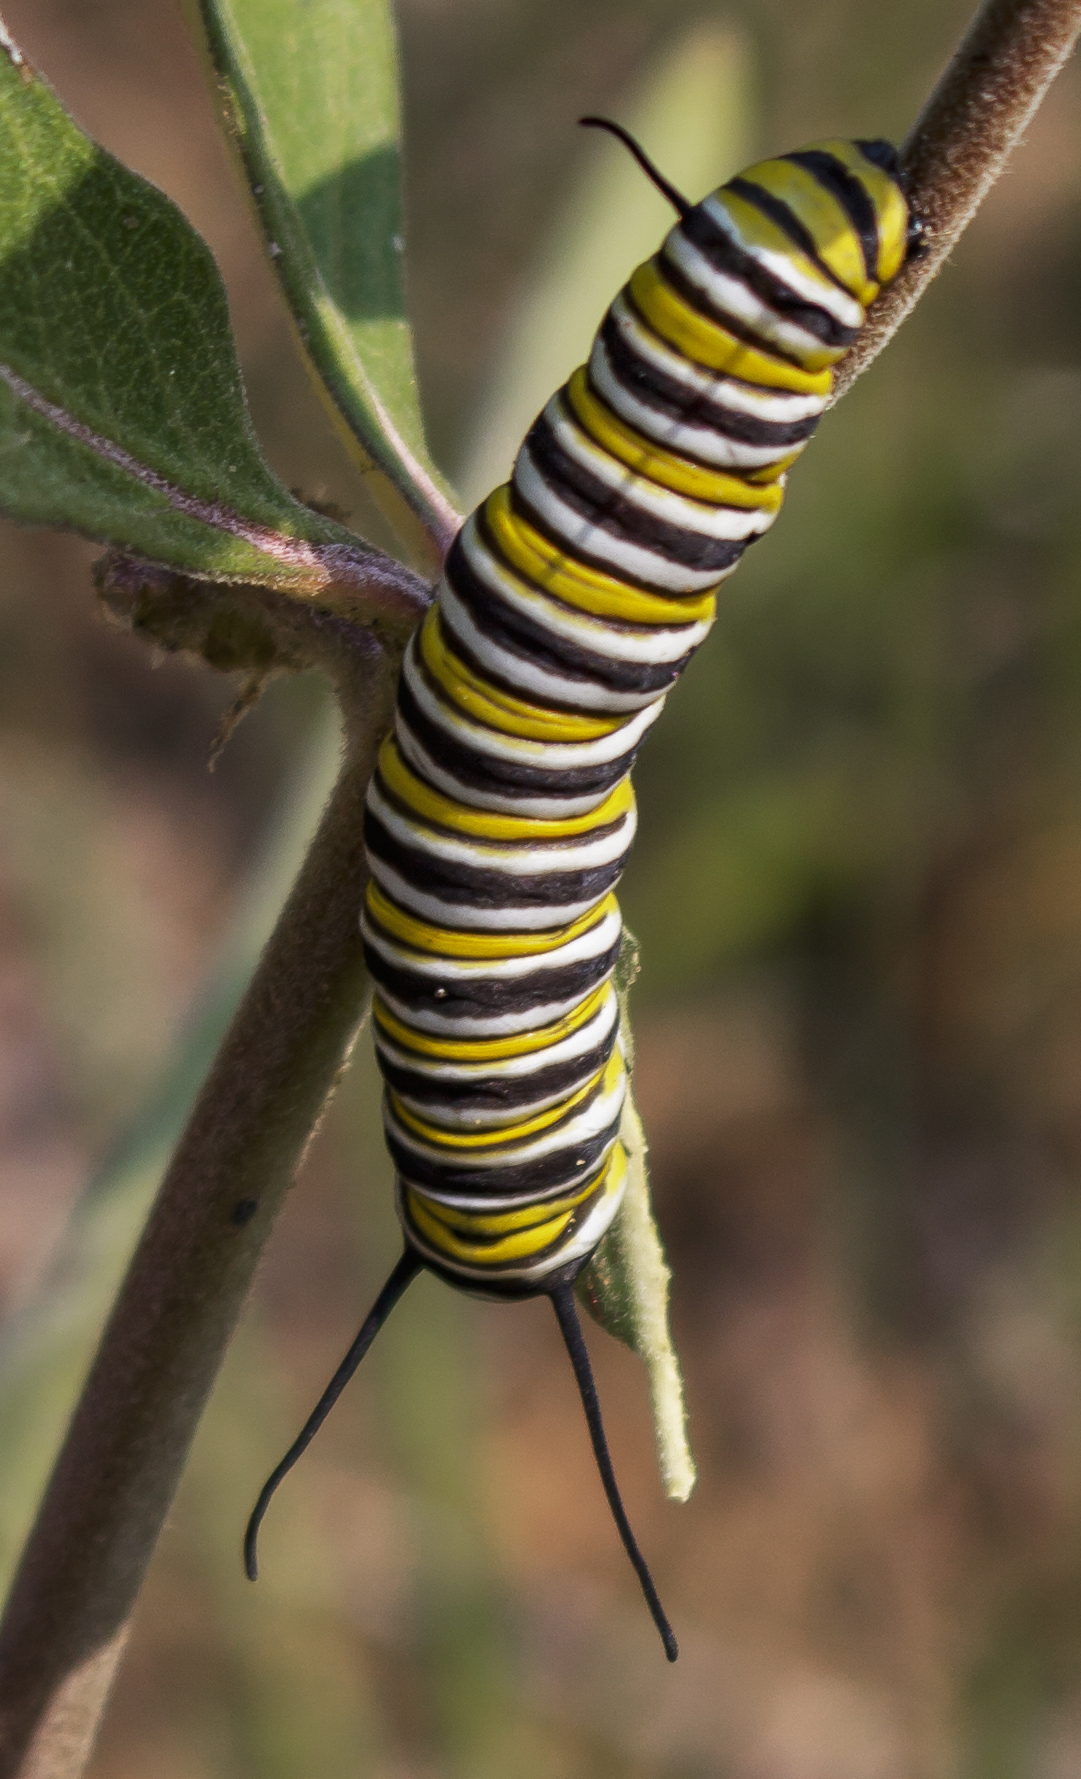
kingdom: Animalia
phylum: Arthropoda
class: Insecta
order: Lepidoptera
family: Nymphalidae
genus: Danaus
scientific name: Danaus plexippus
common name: Monarch
